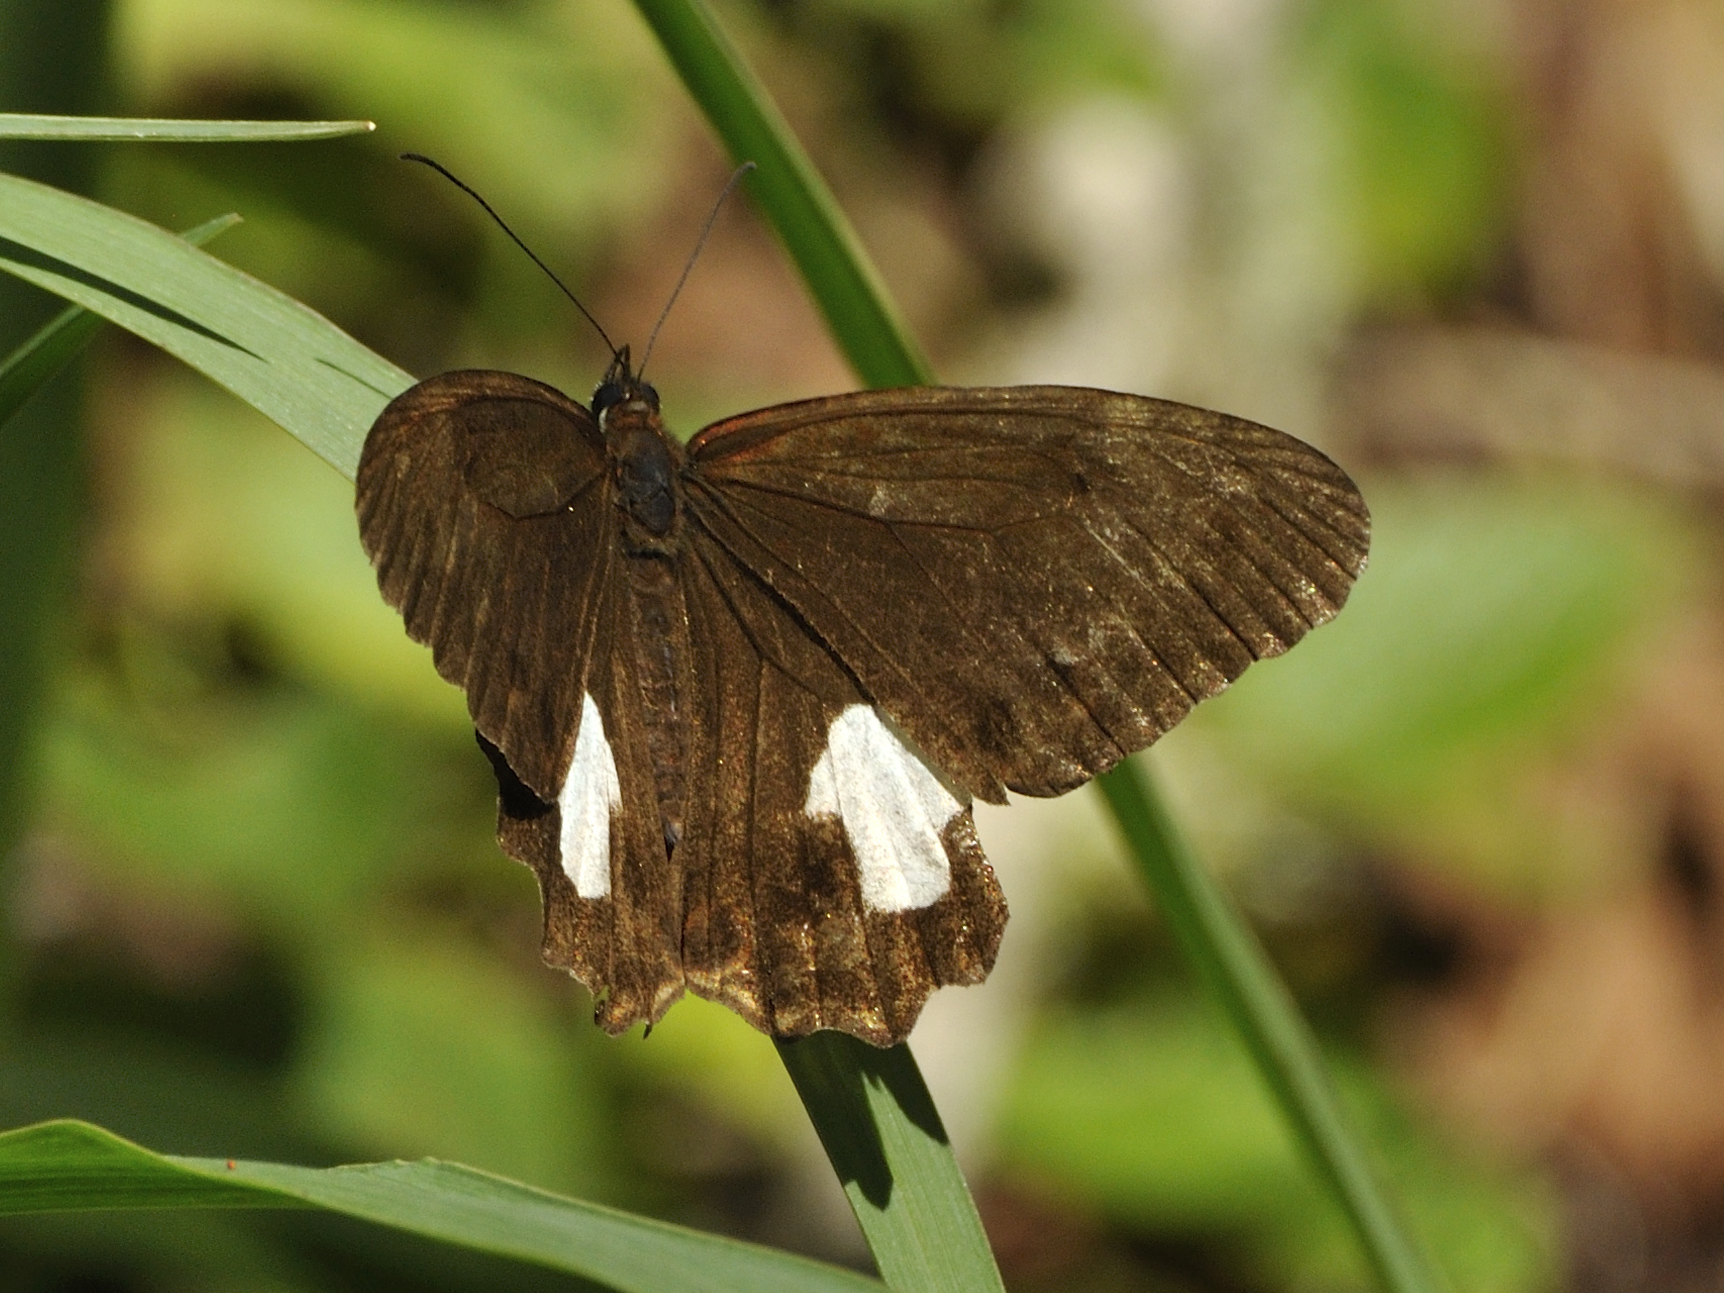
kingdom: Animalia
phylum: Arthropoda
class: Insecta
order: Lepidoptera
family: Nymphalidae
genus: Dioriste
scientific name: Dioriste leucospilos
